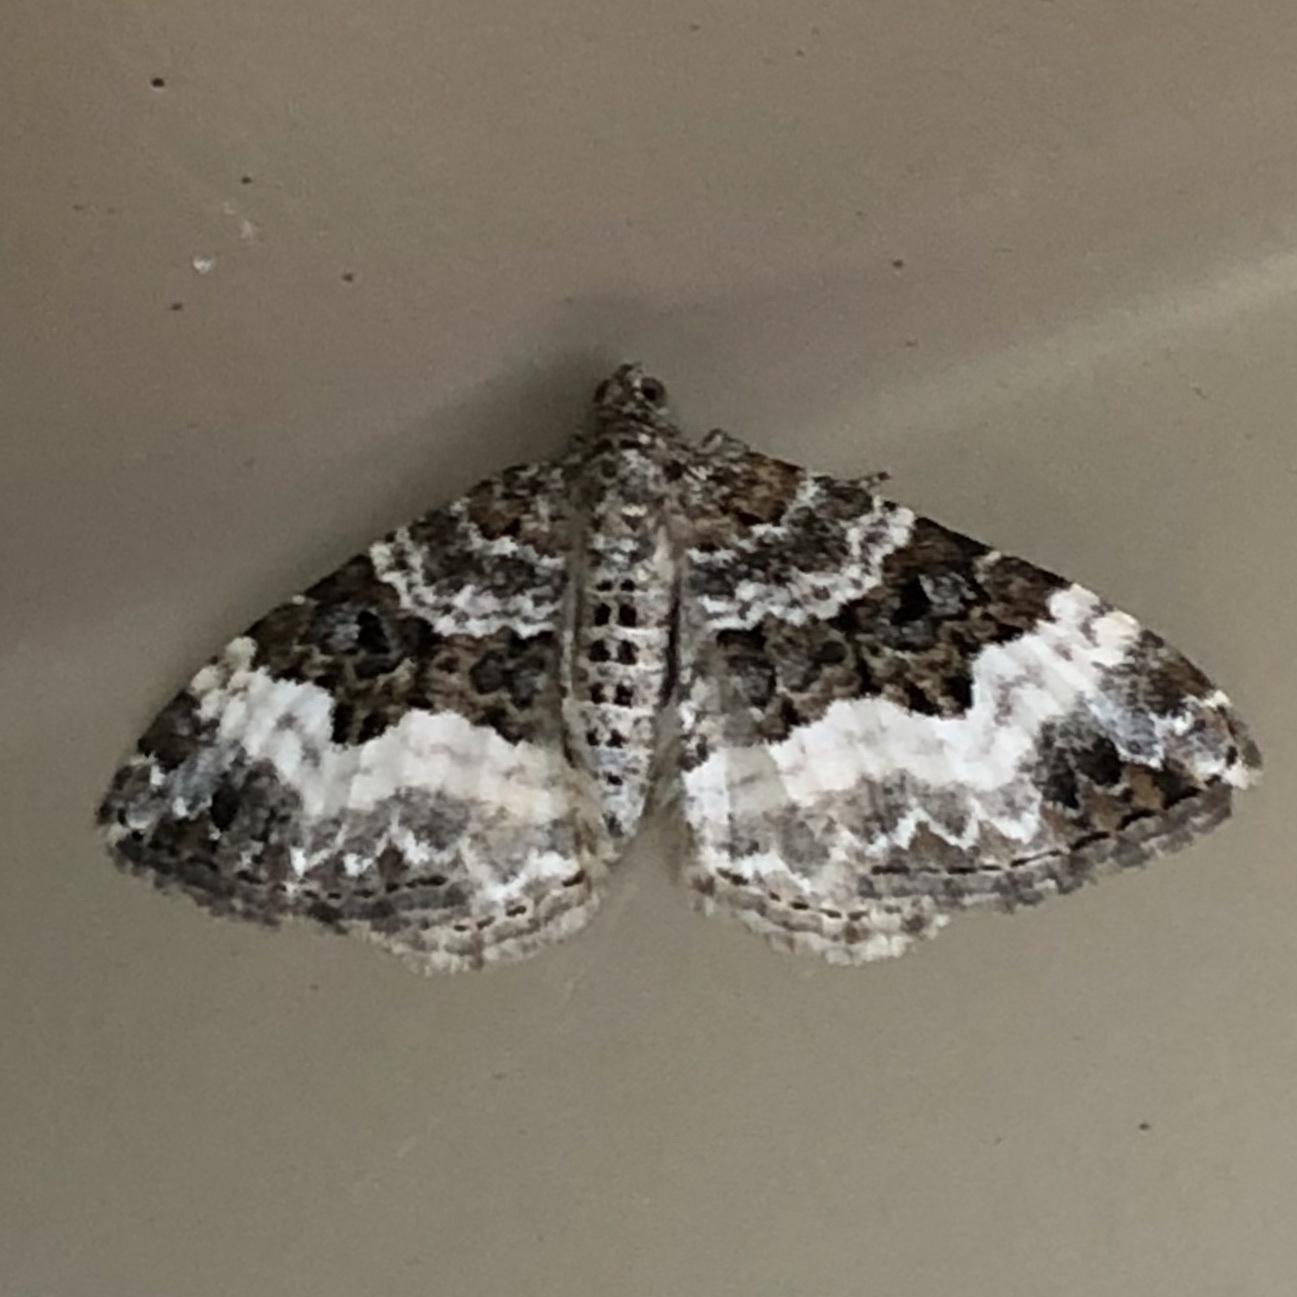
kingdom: Animalia
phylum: Arthropoda
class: Insecta
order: Lepidoptera
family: Geometridae
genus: Epirrhoe
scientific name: Epirrhoe alternata
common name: Common carpet
